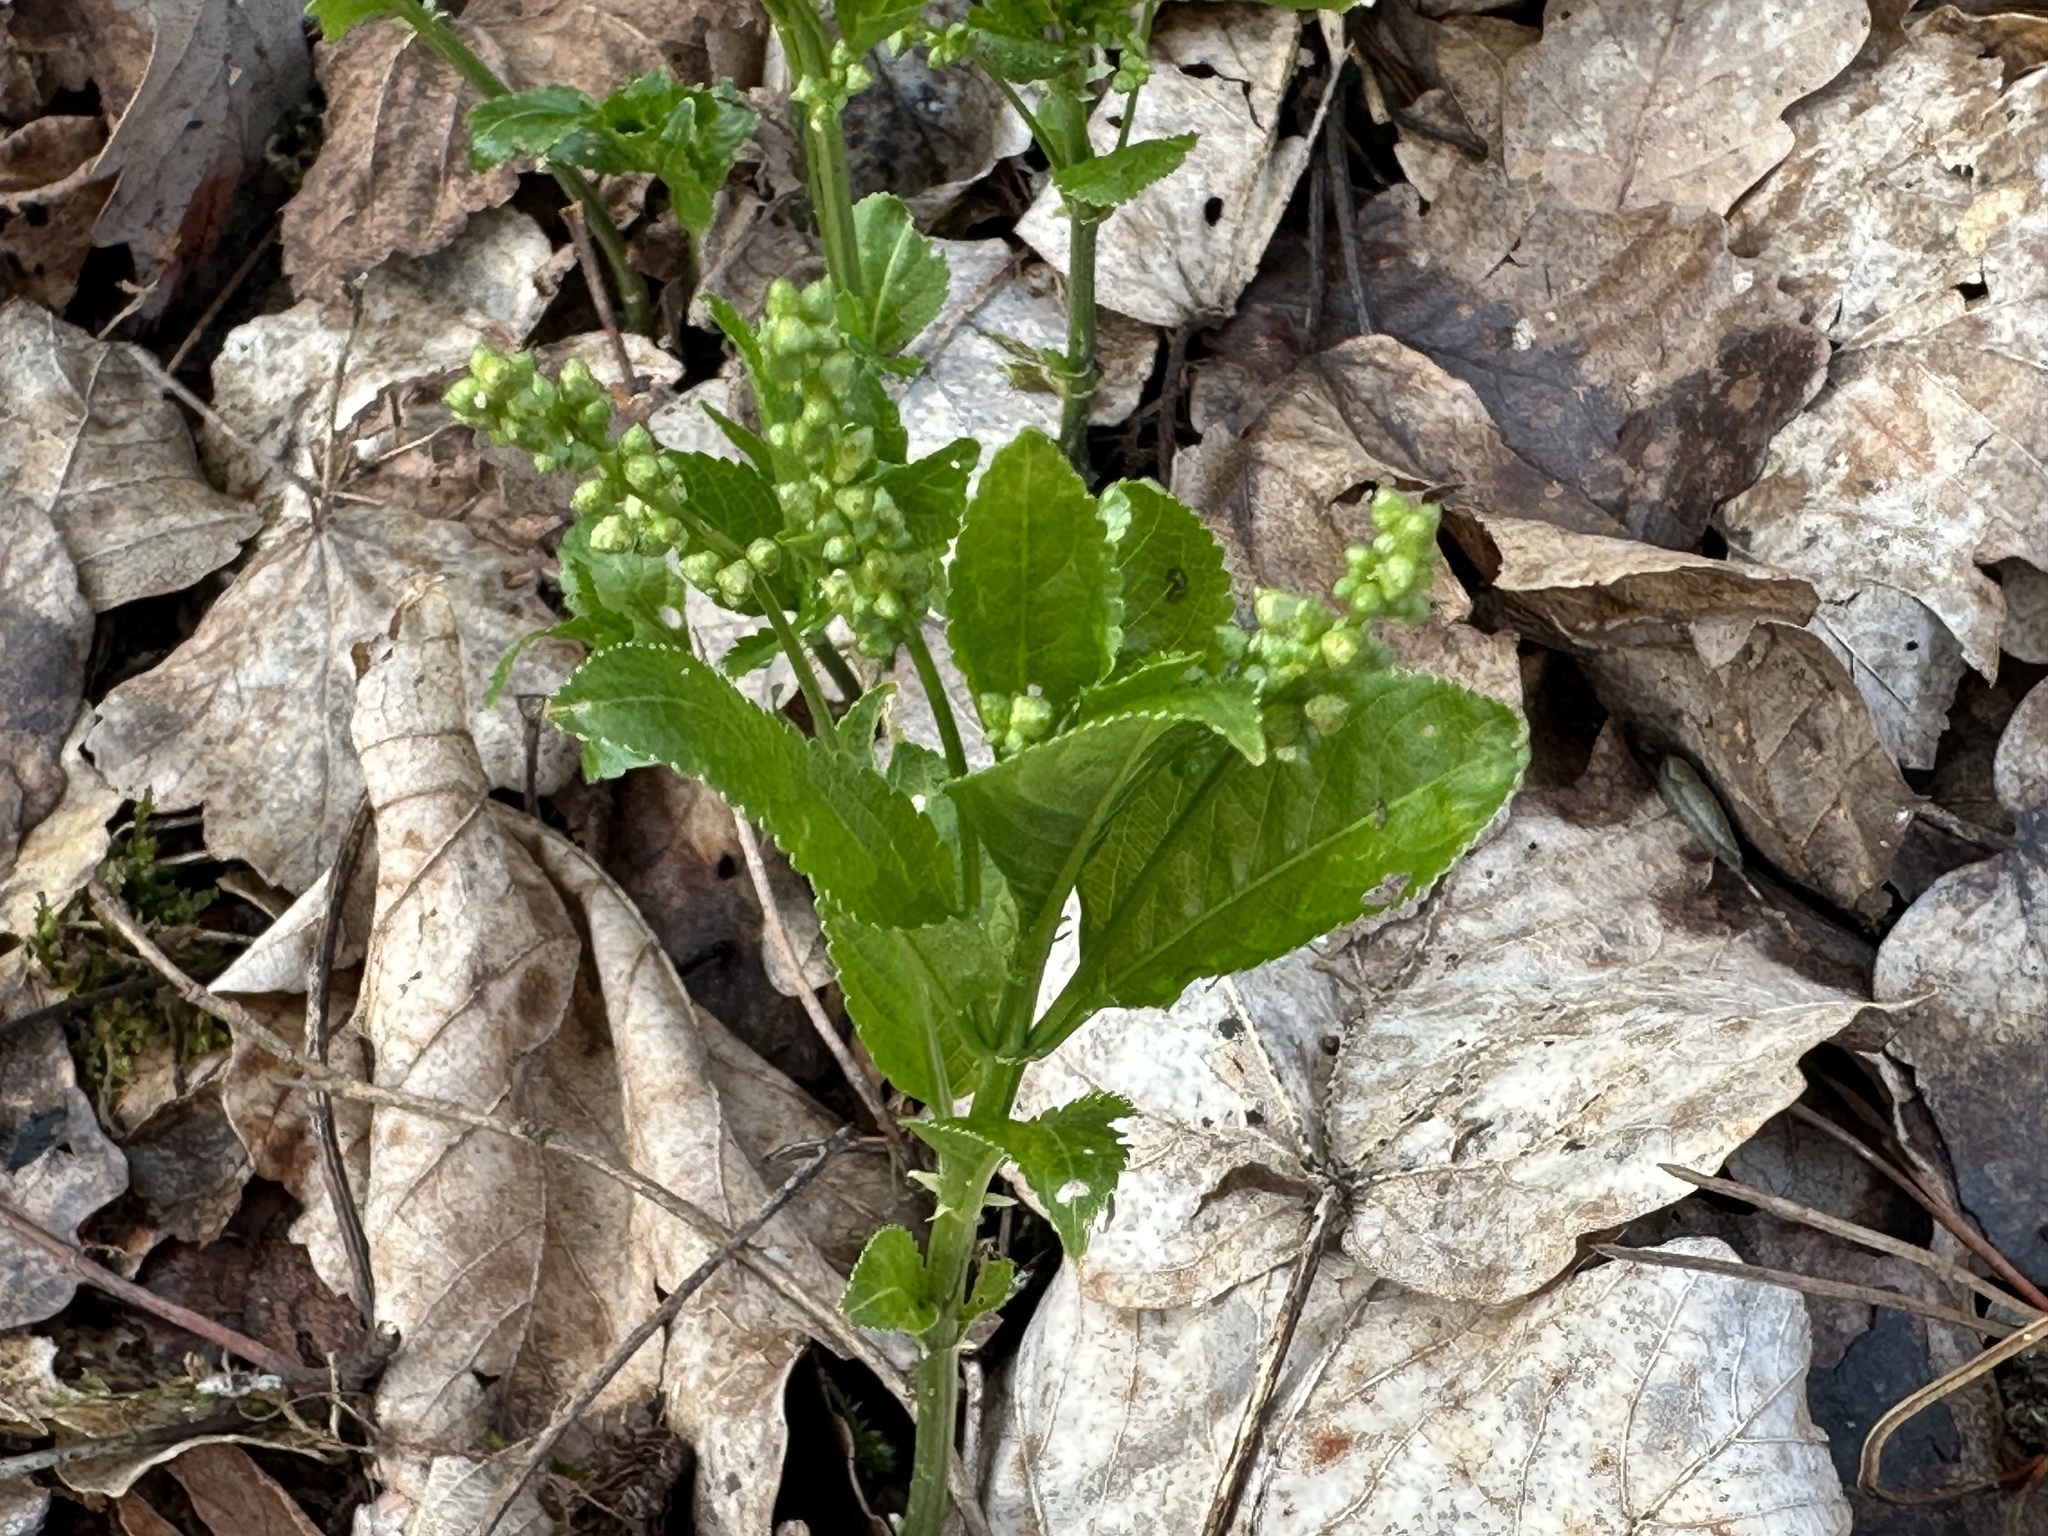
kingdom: Plantae
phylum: Tracheophyta
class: Magnoliopsida
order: Malpighiales
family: Euphorbiaceae
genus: Mercurialis
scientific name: Mercurialis perennis
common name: Dog mercury
